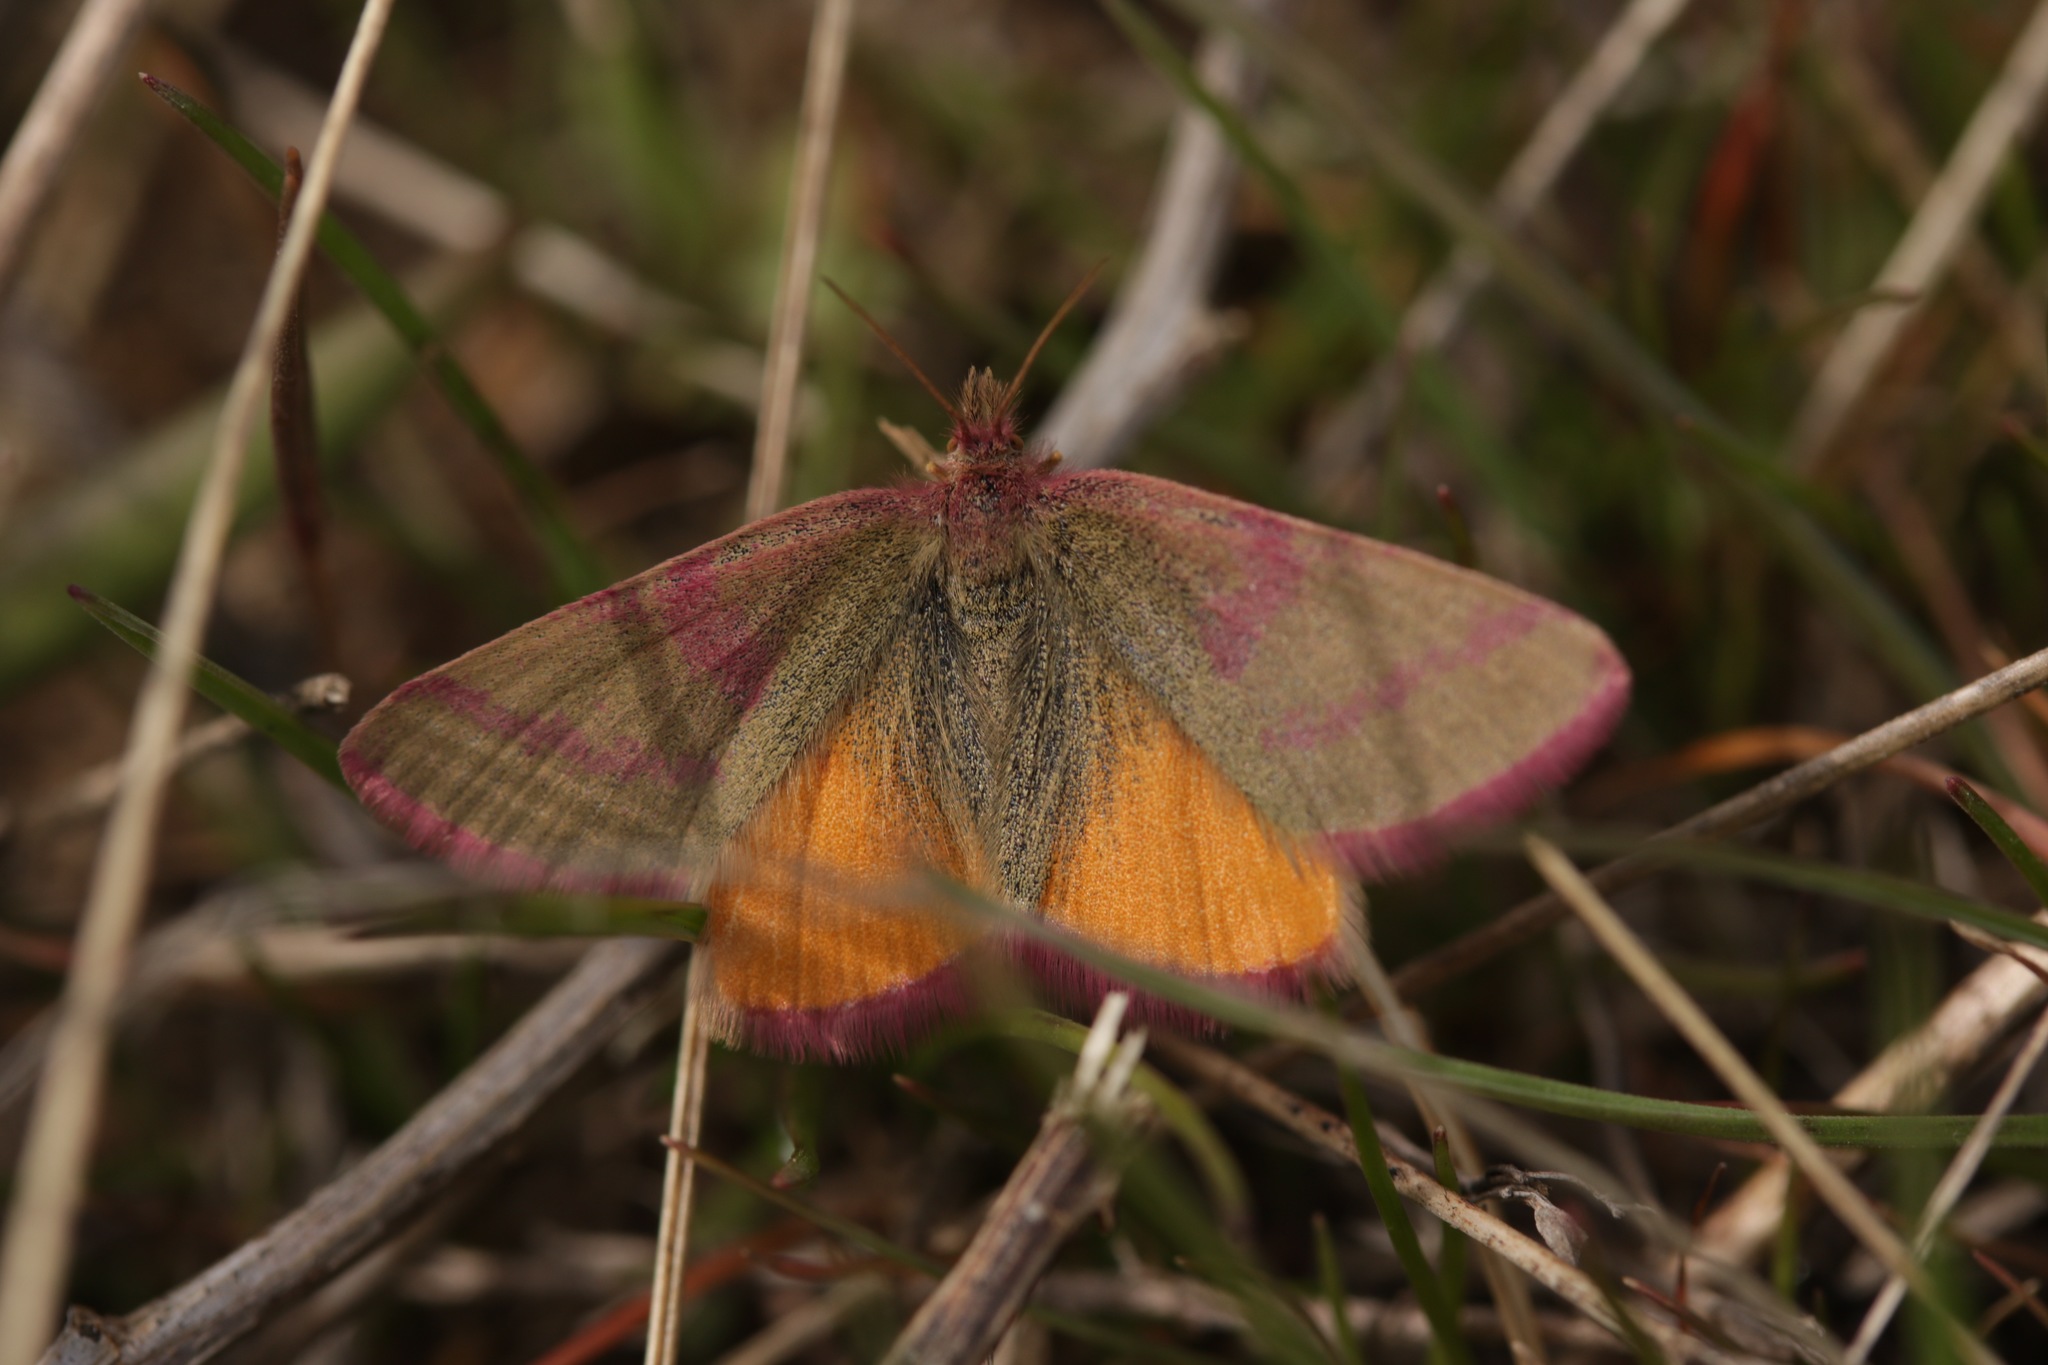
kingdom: Animalia
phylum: Arthropoda
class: Insecta
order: Lepidoptera
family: Geometridae
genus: Lythria
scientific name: Lythria purpuraria
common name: Purple-barred yellow
